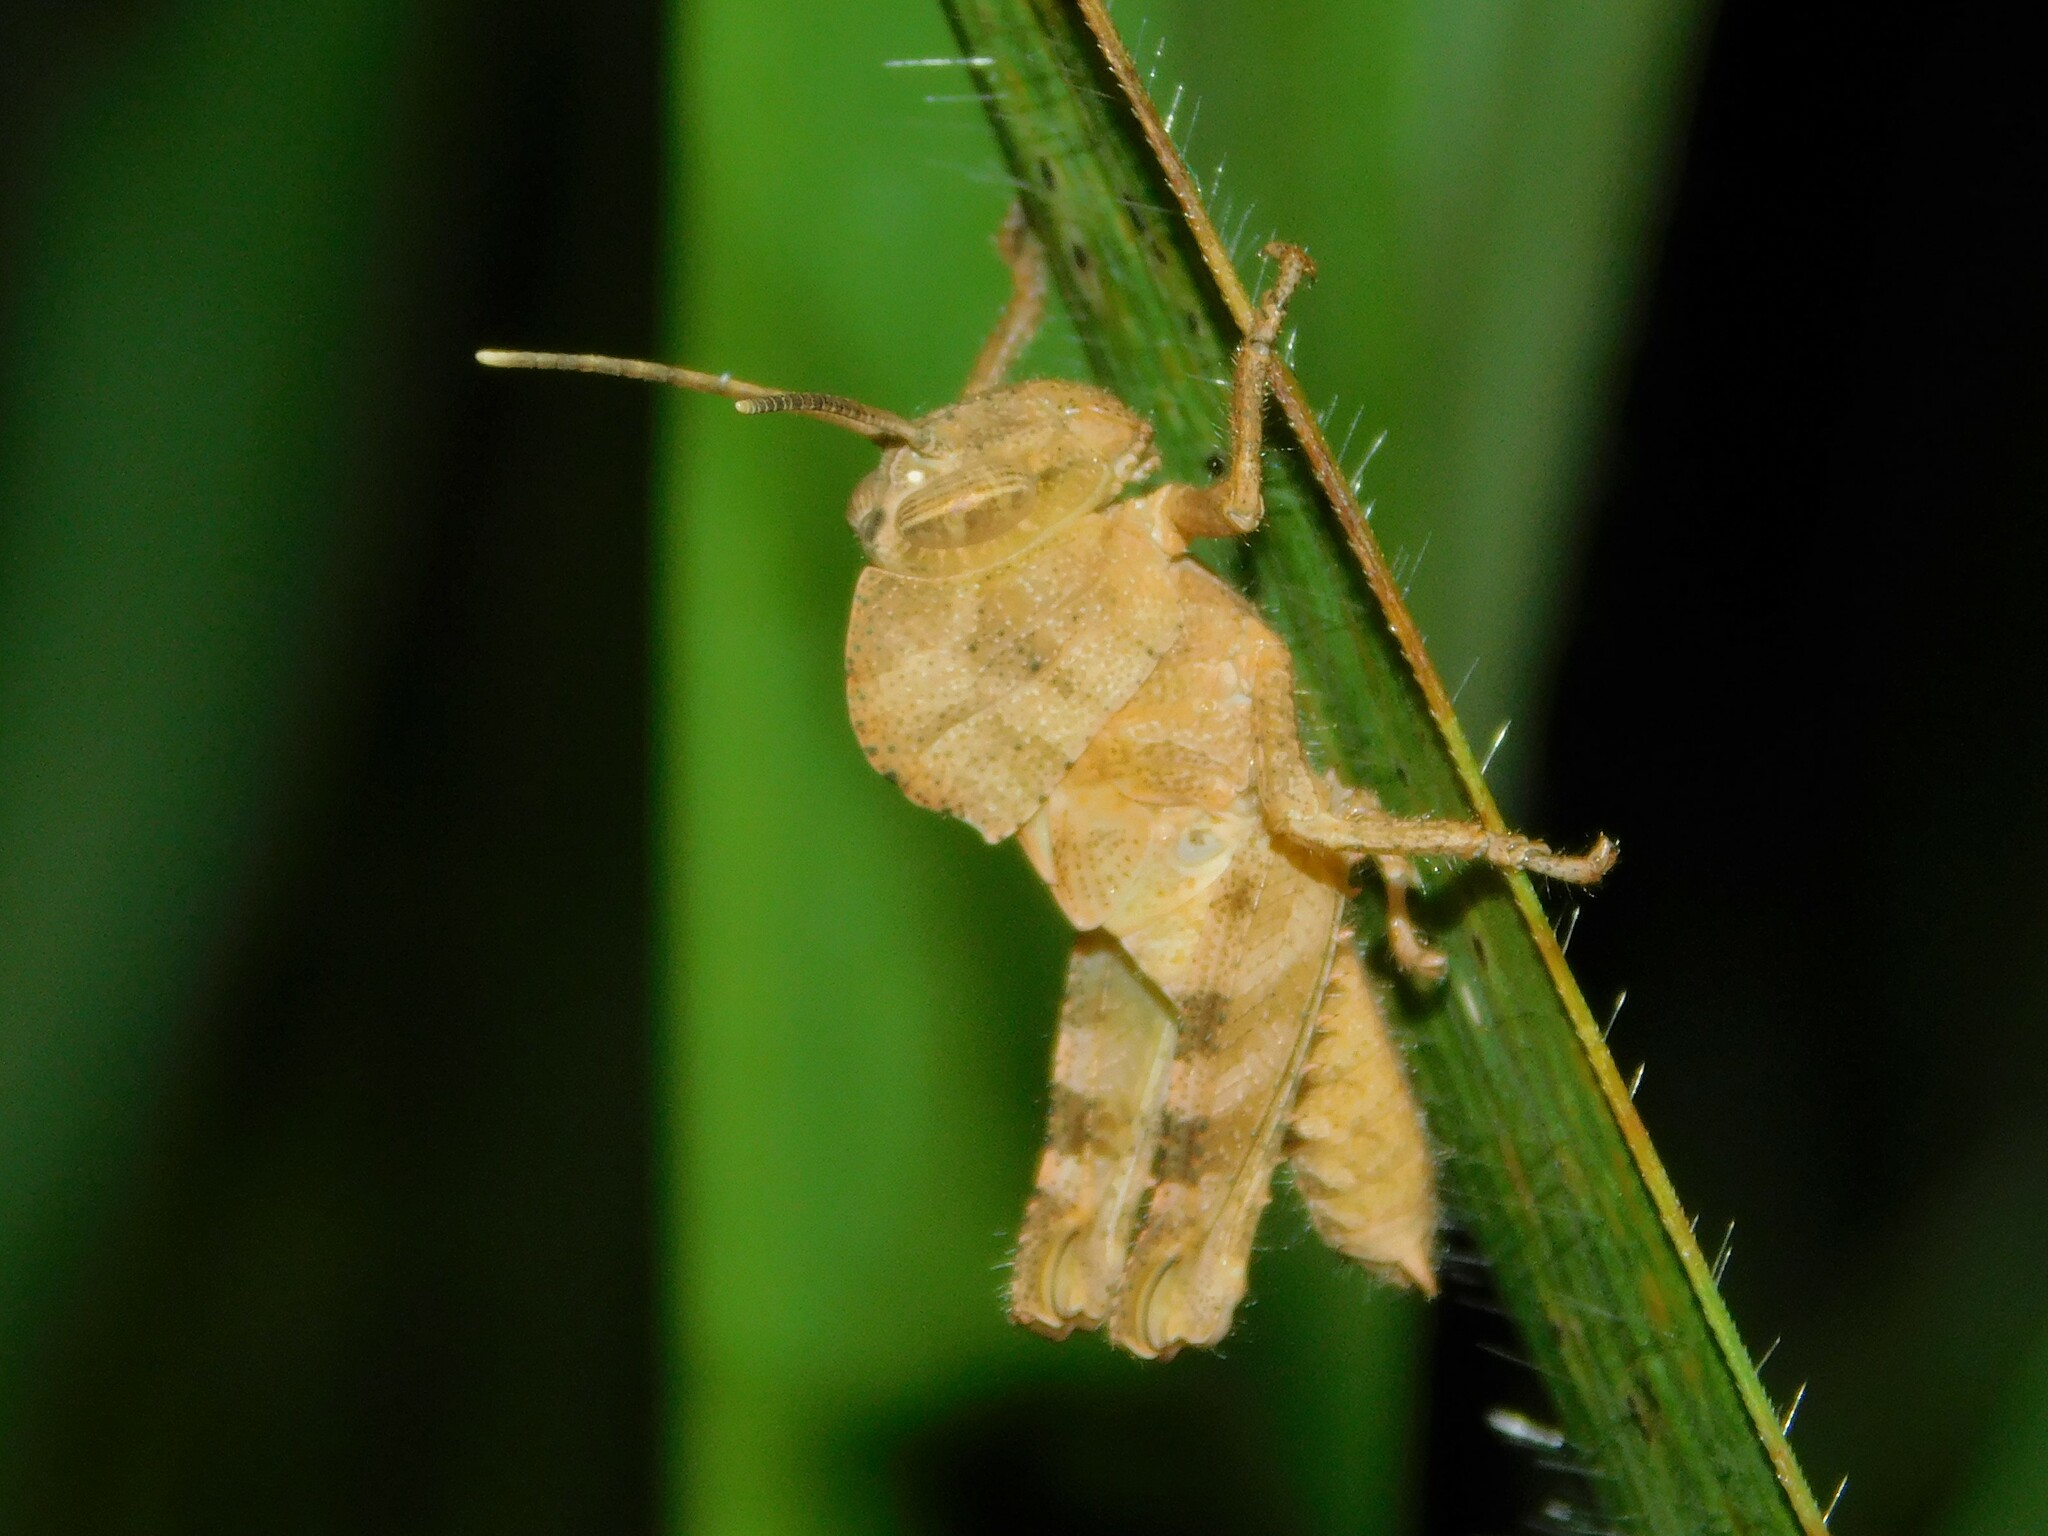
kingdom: Animalia
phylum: Arthropoda
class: Insecta
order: Orthoptera
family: Acrididae
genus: Abisares
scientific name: Abisares viridipenne
